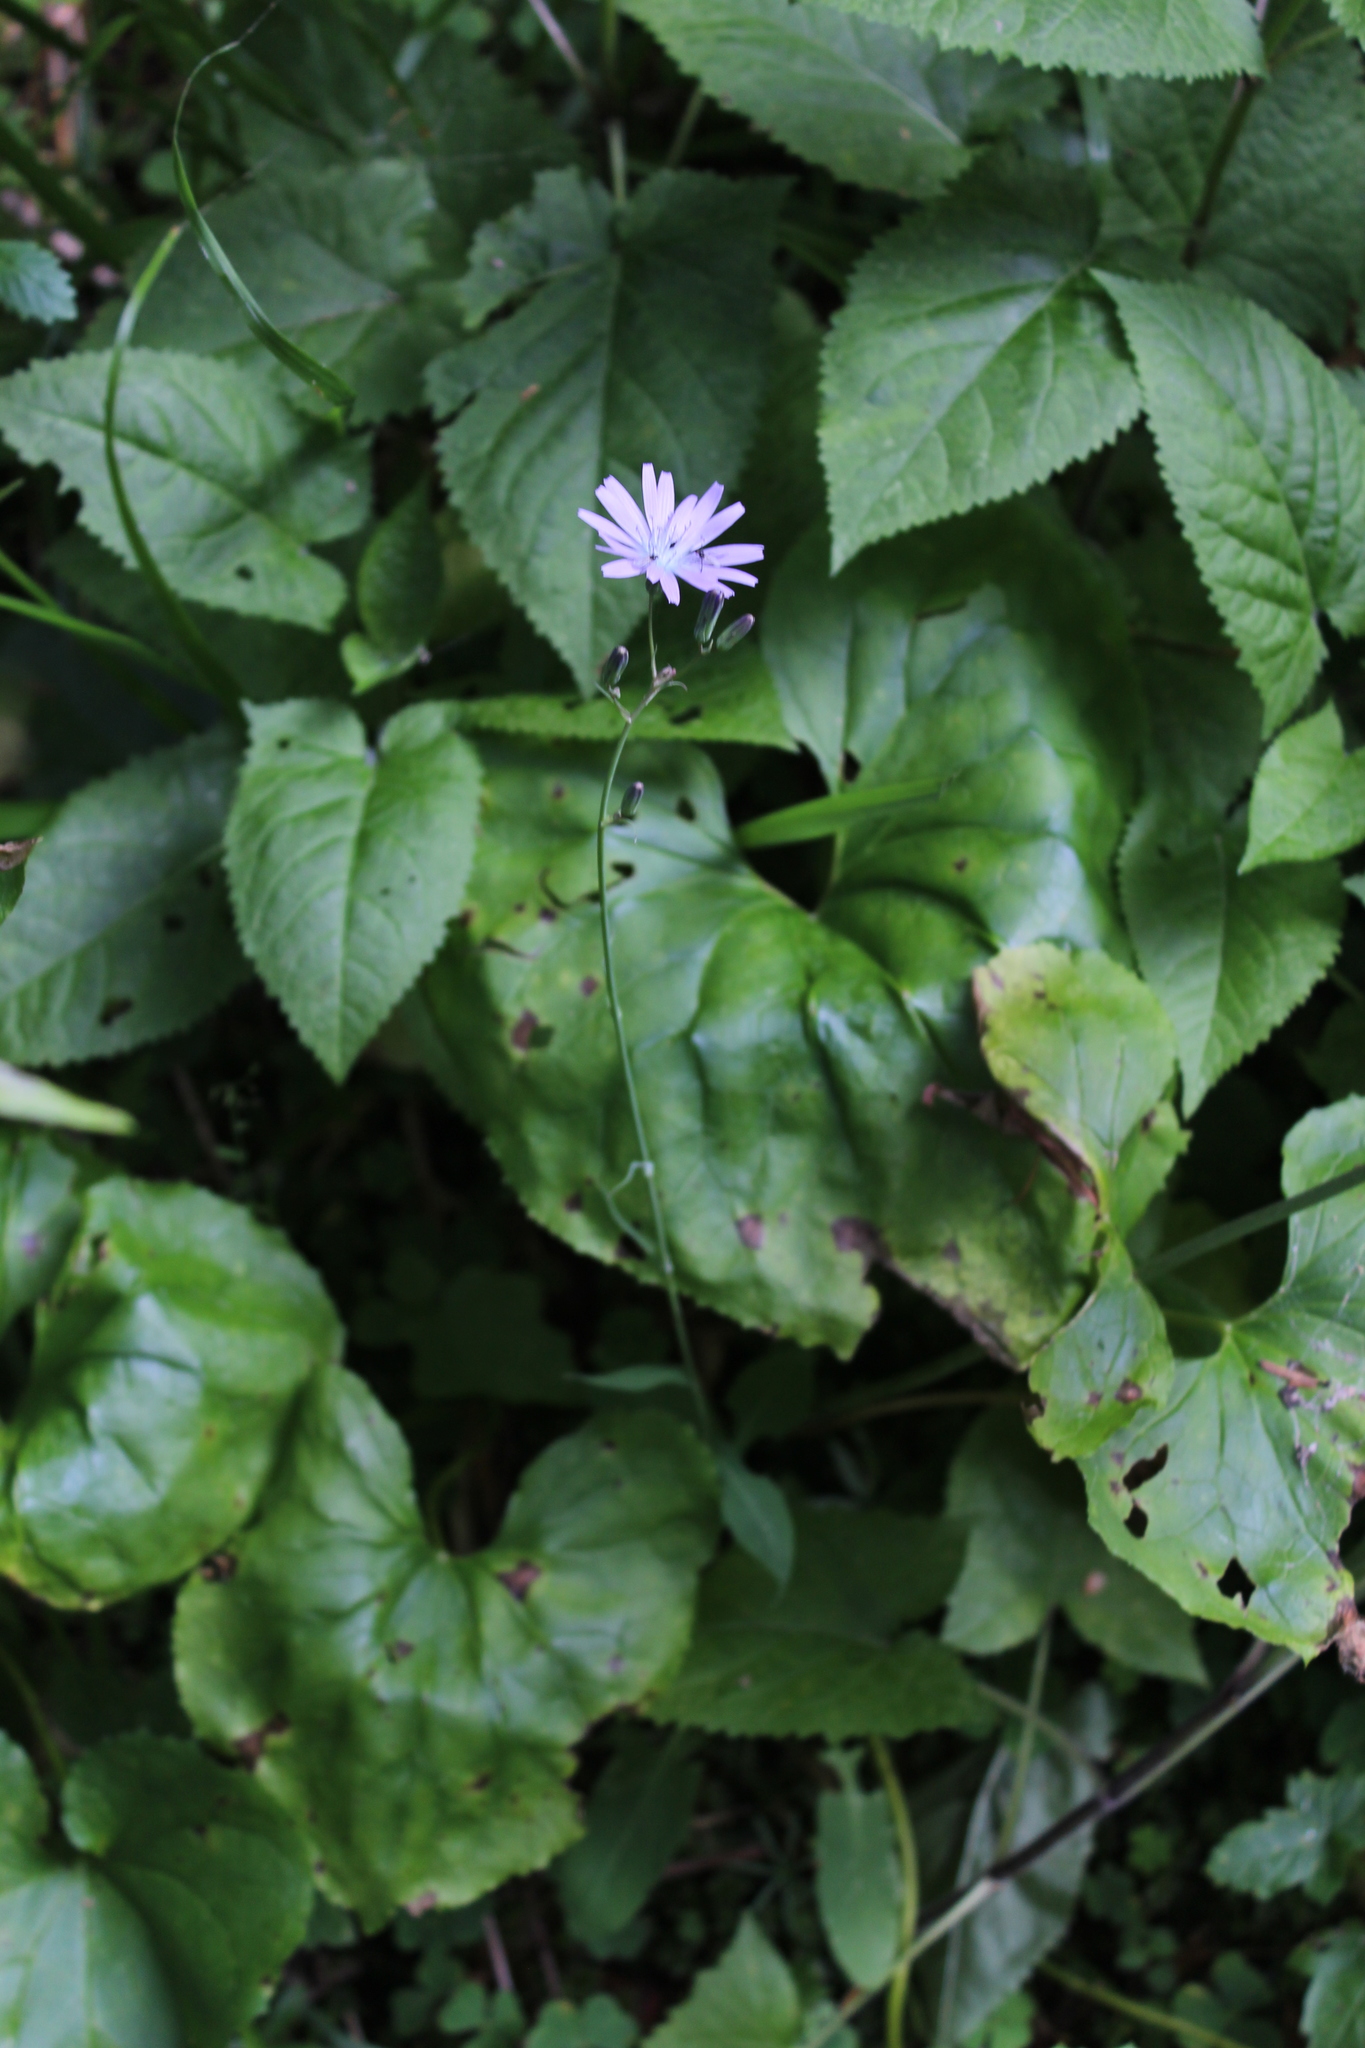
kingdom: Plantae
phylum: Tracheophyta
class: Magnoliopsida
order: Asterales
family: Asteraceae
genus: Lactuca
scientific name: Lactuca racemosa
